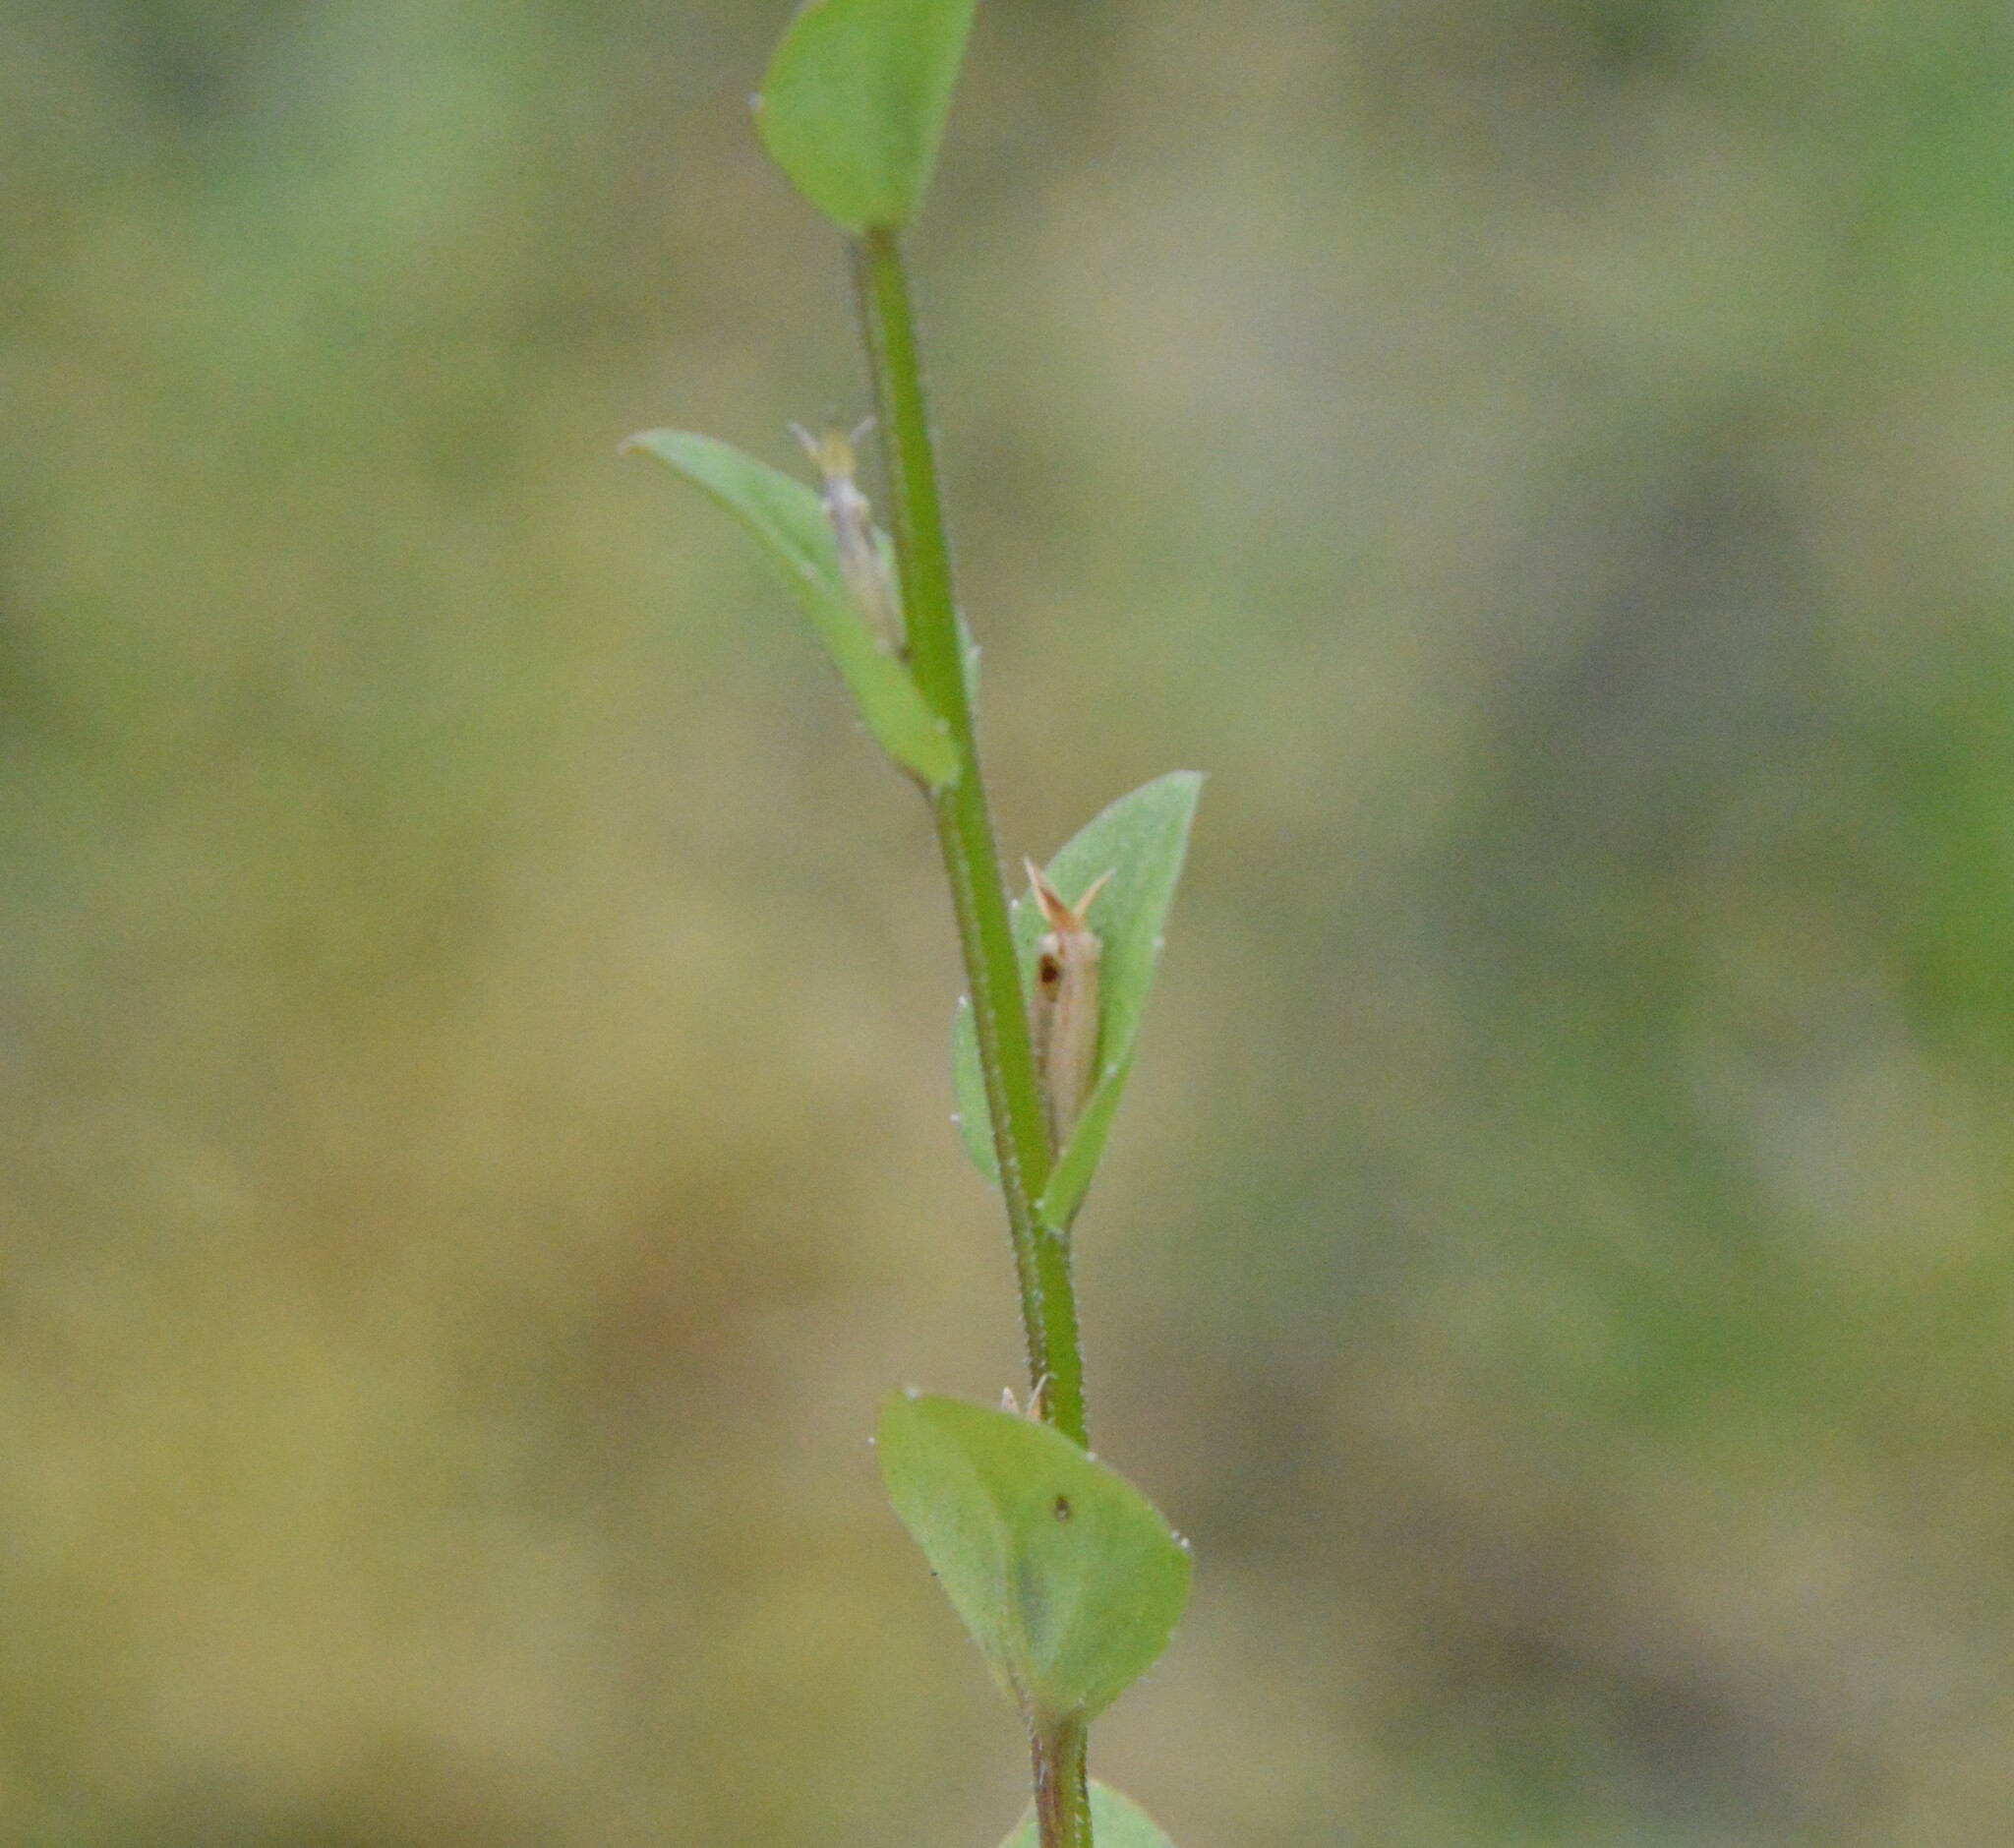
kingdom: Plantae
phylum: Tracheophyta
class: Magnoliopsida
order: Asterales
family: Campanulaceae
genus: Triodanis
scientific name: Triodanis biflora
